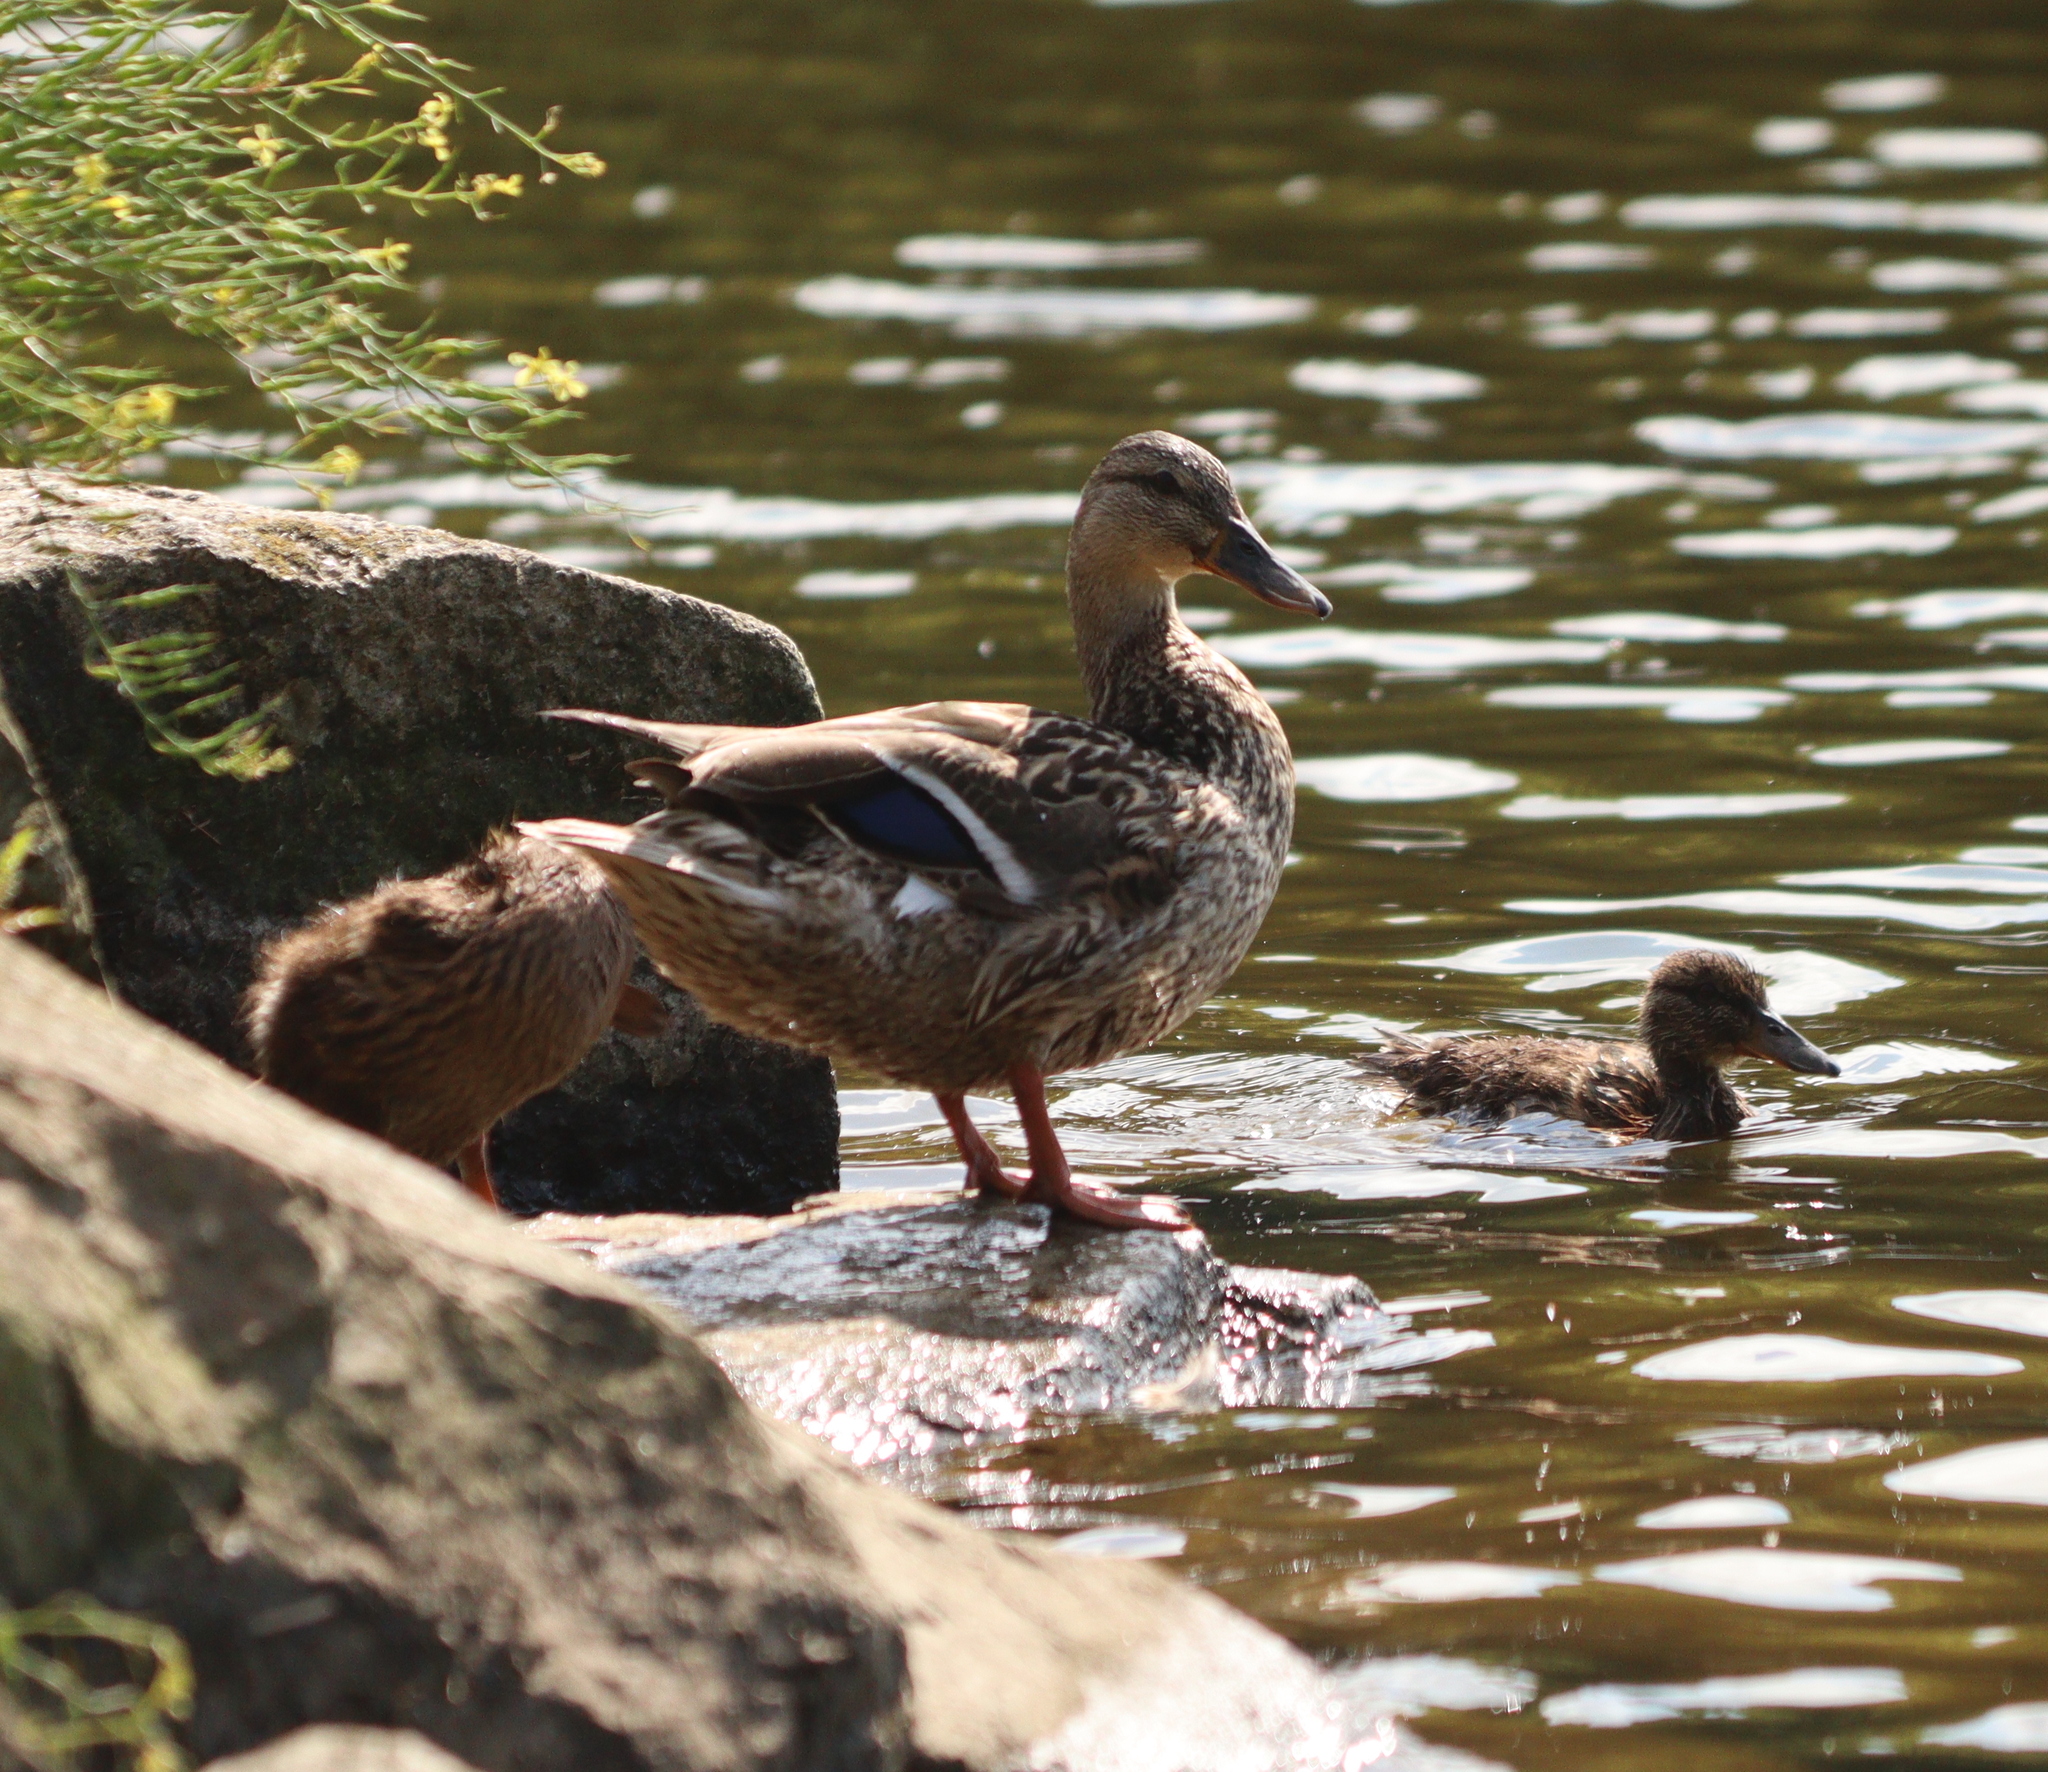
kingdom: Animalia
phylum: Chordata
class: Aves
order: Anseriformes
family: Anatidae
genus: Anas
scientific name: Anas platyrhynchos
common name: Mallard
